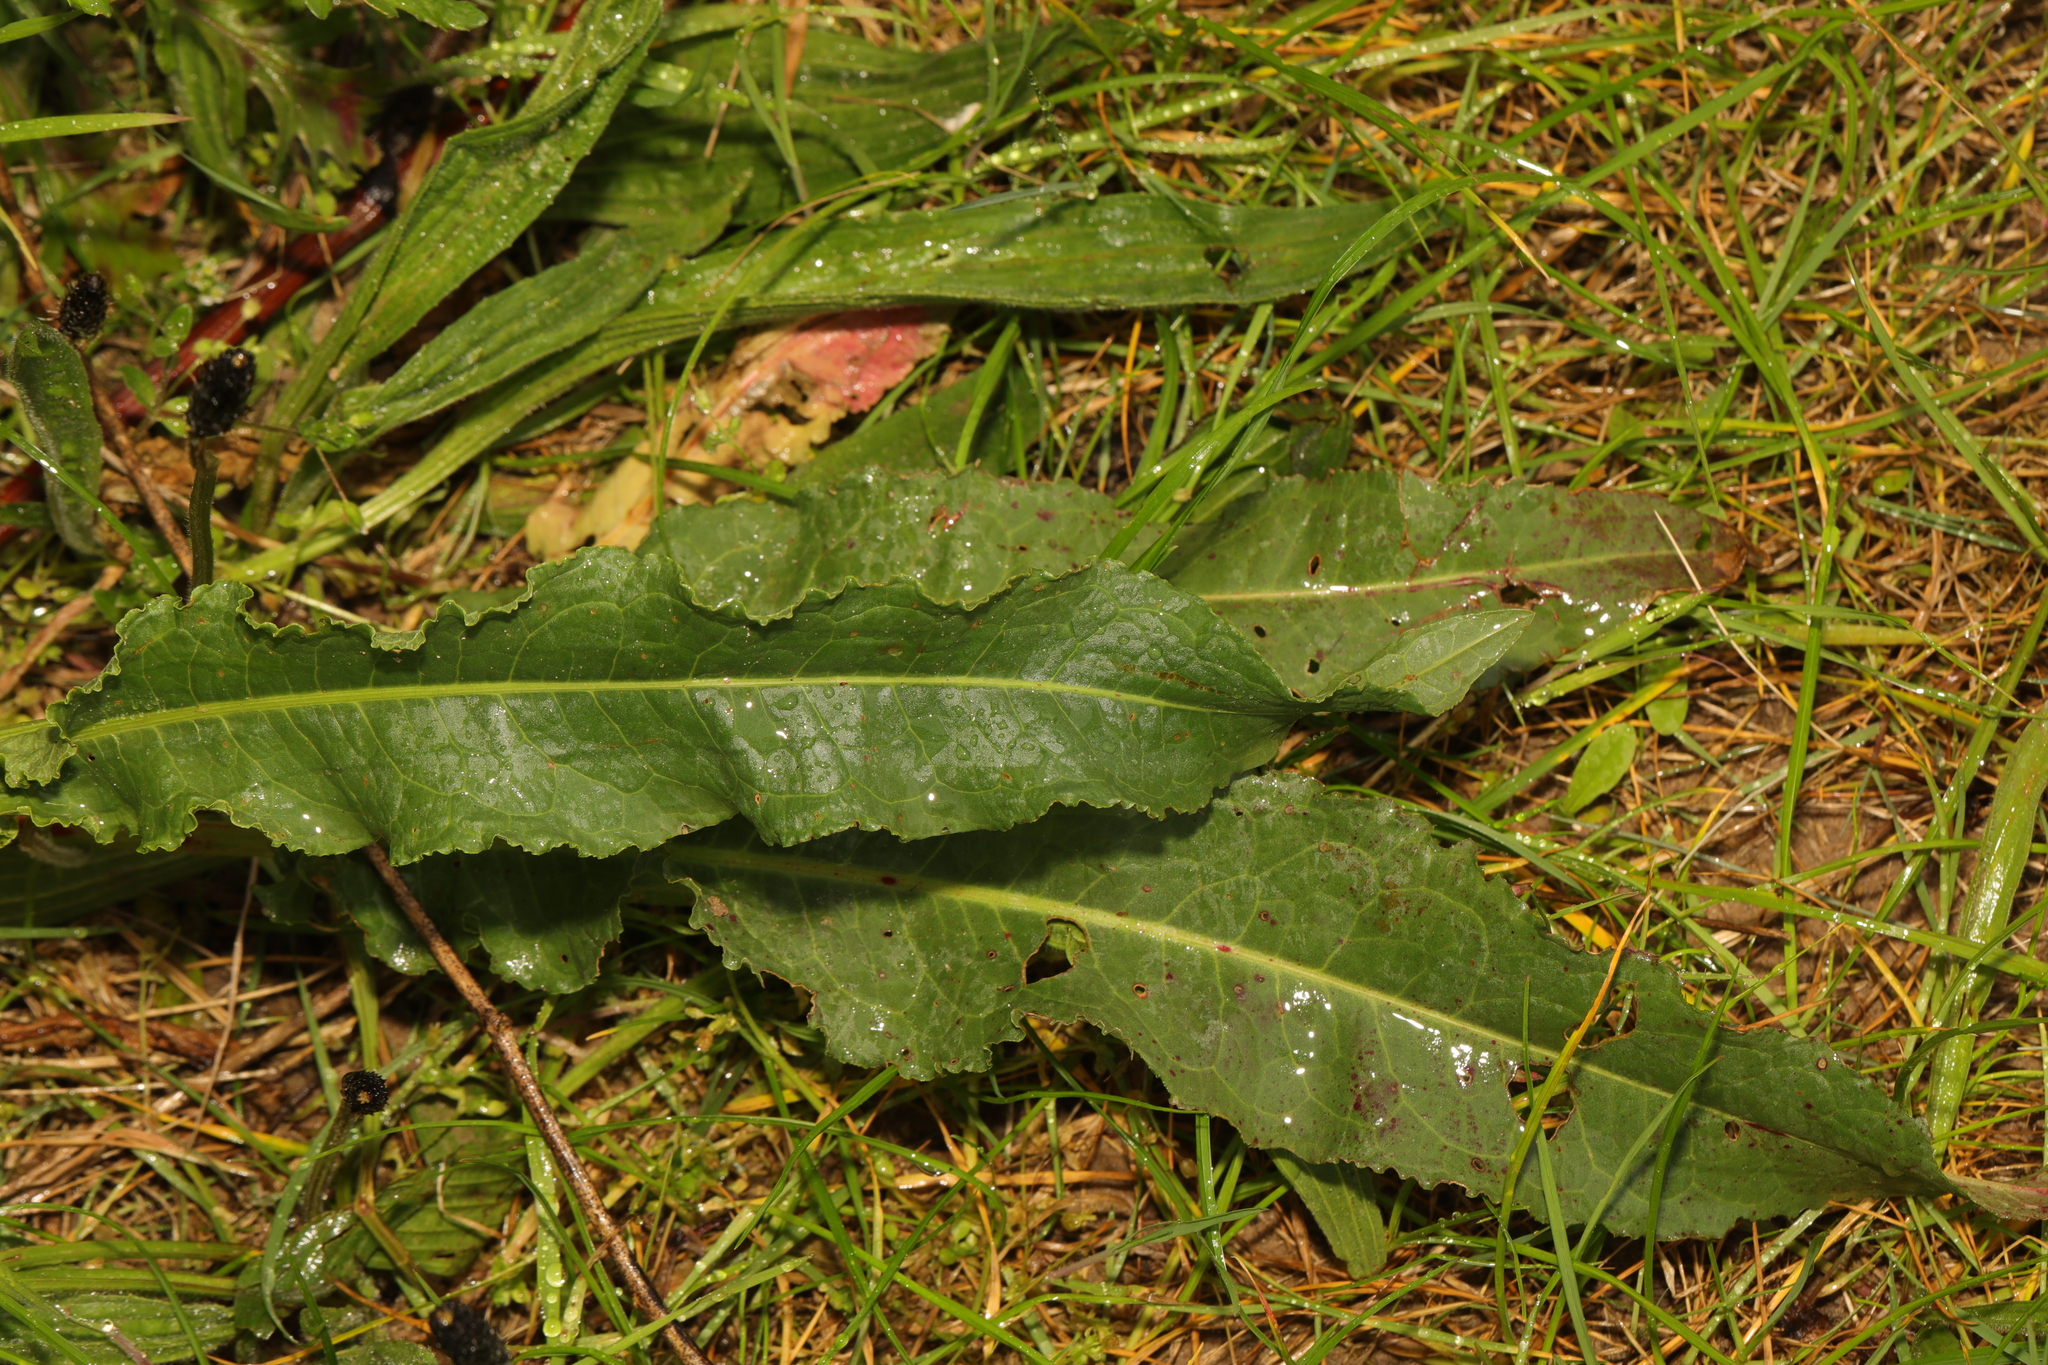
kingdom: Plantae
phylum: Tracheophyta
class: Magnoliopsida
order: Caryophyllales
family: Polygonaceae
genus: Rumex
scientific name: Rumex crispus
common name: Curled dock
